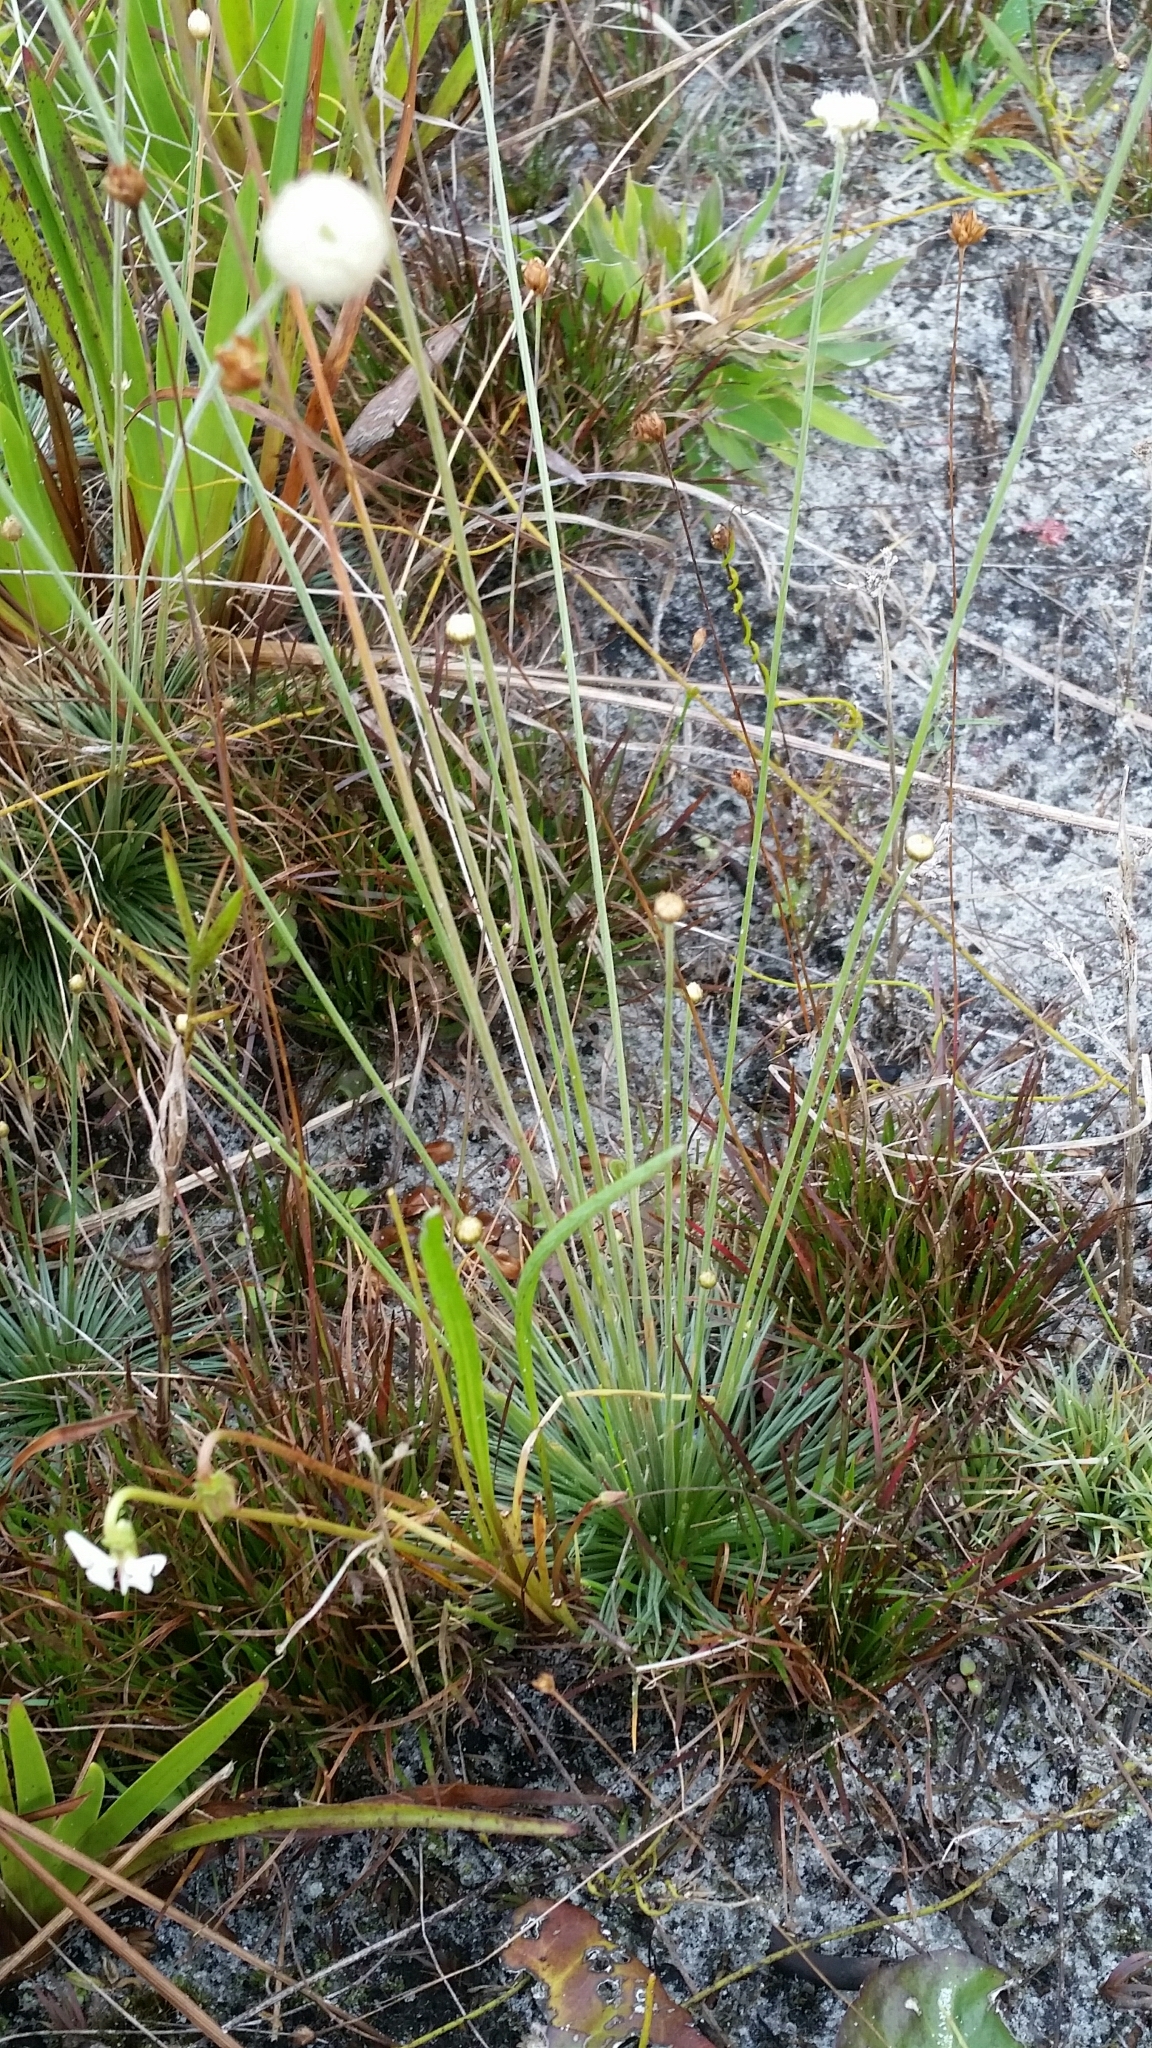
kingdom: Plantae
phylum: Tracheophyta
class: Liliopsida
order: Poales
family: Eriocaulaceae
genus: Syngonanthus
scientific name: Syngonanthus flavidulus
